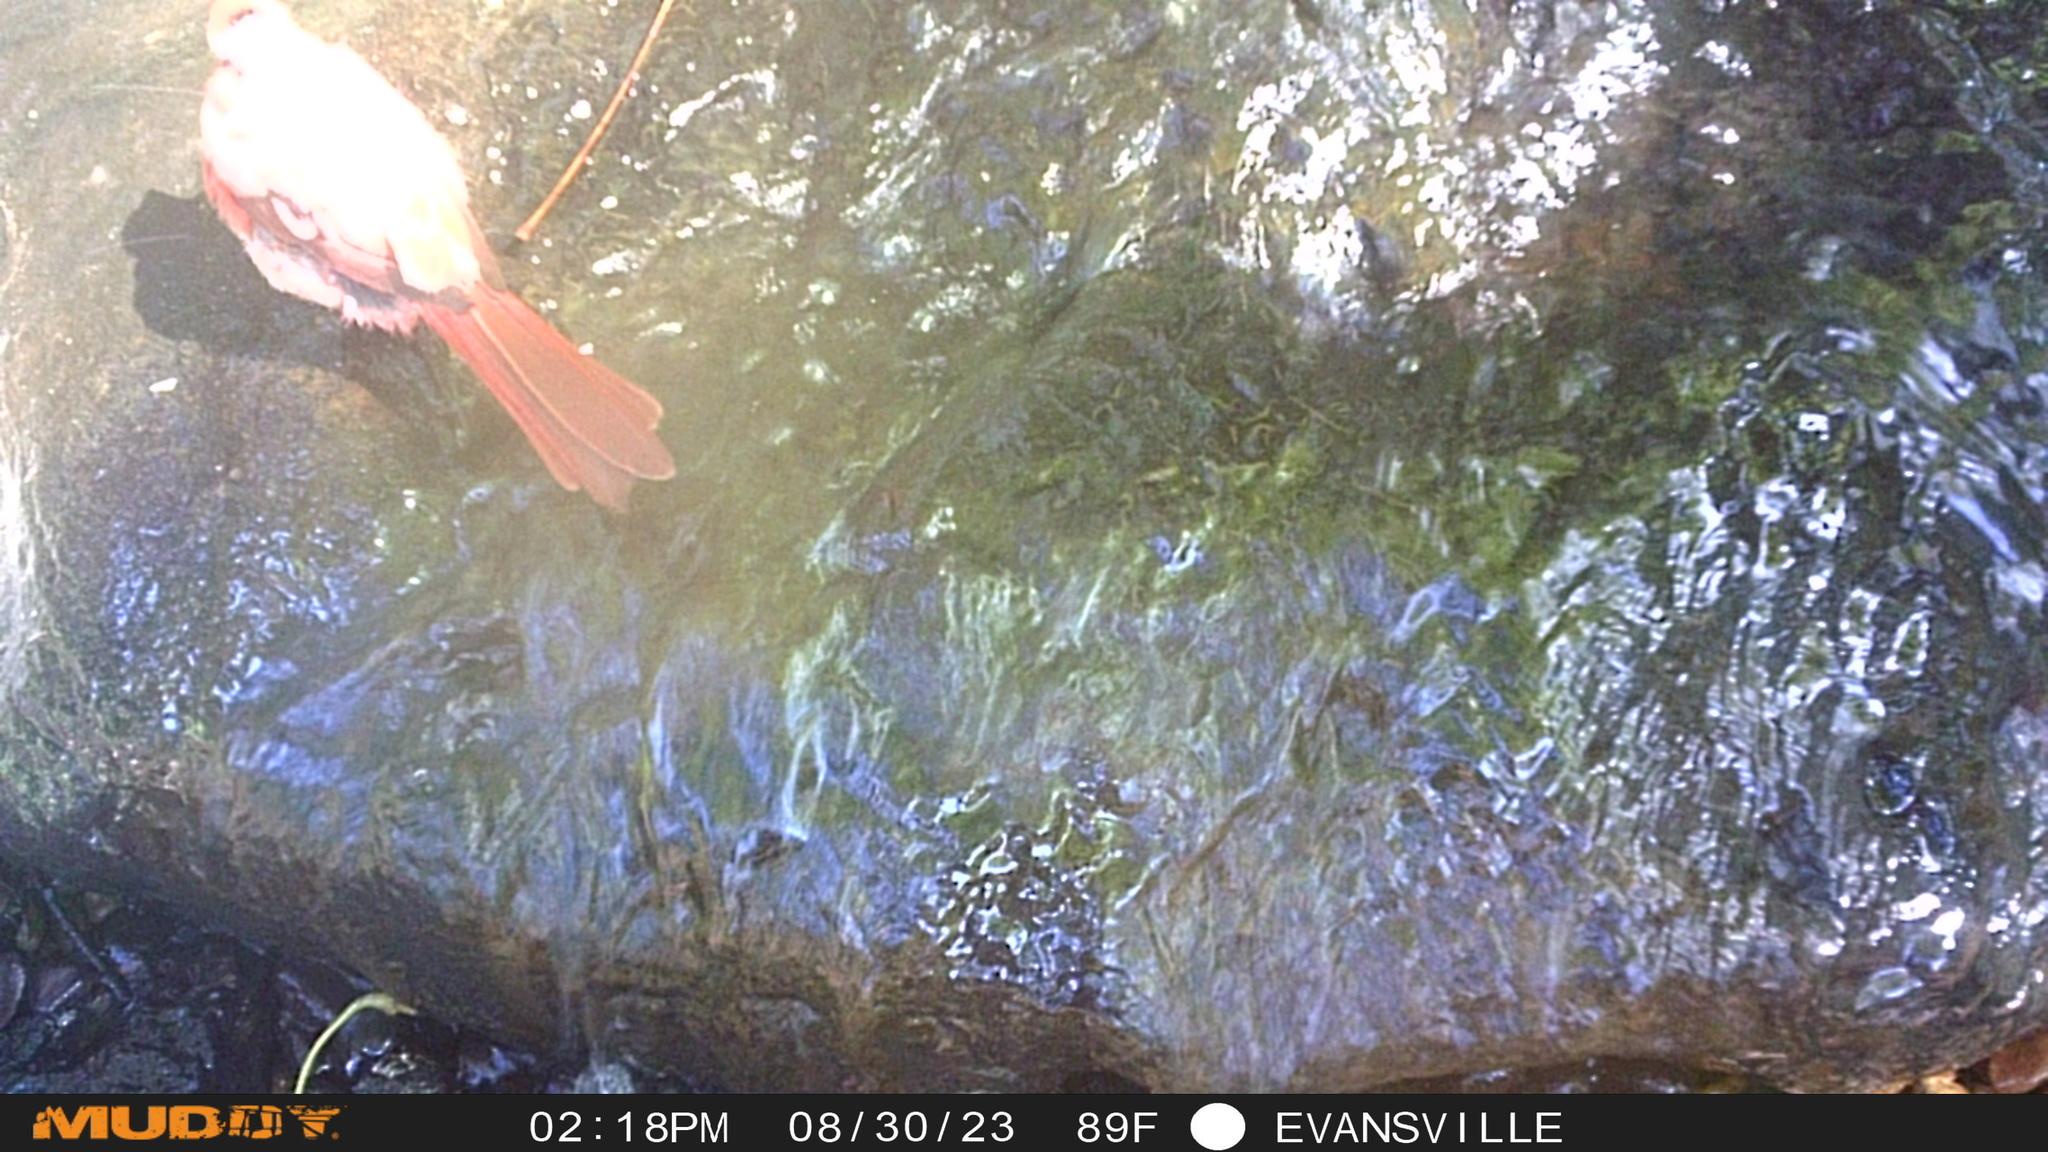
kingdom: Animalia
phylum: Chordata
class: Aves
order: Passeriformes
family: Cardinalidae
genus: Cardinalis
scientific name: Cardinalis cardinalis
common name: Northern cardinal
